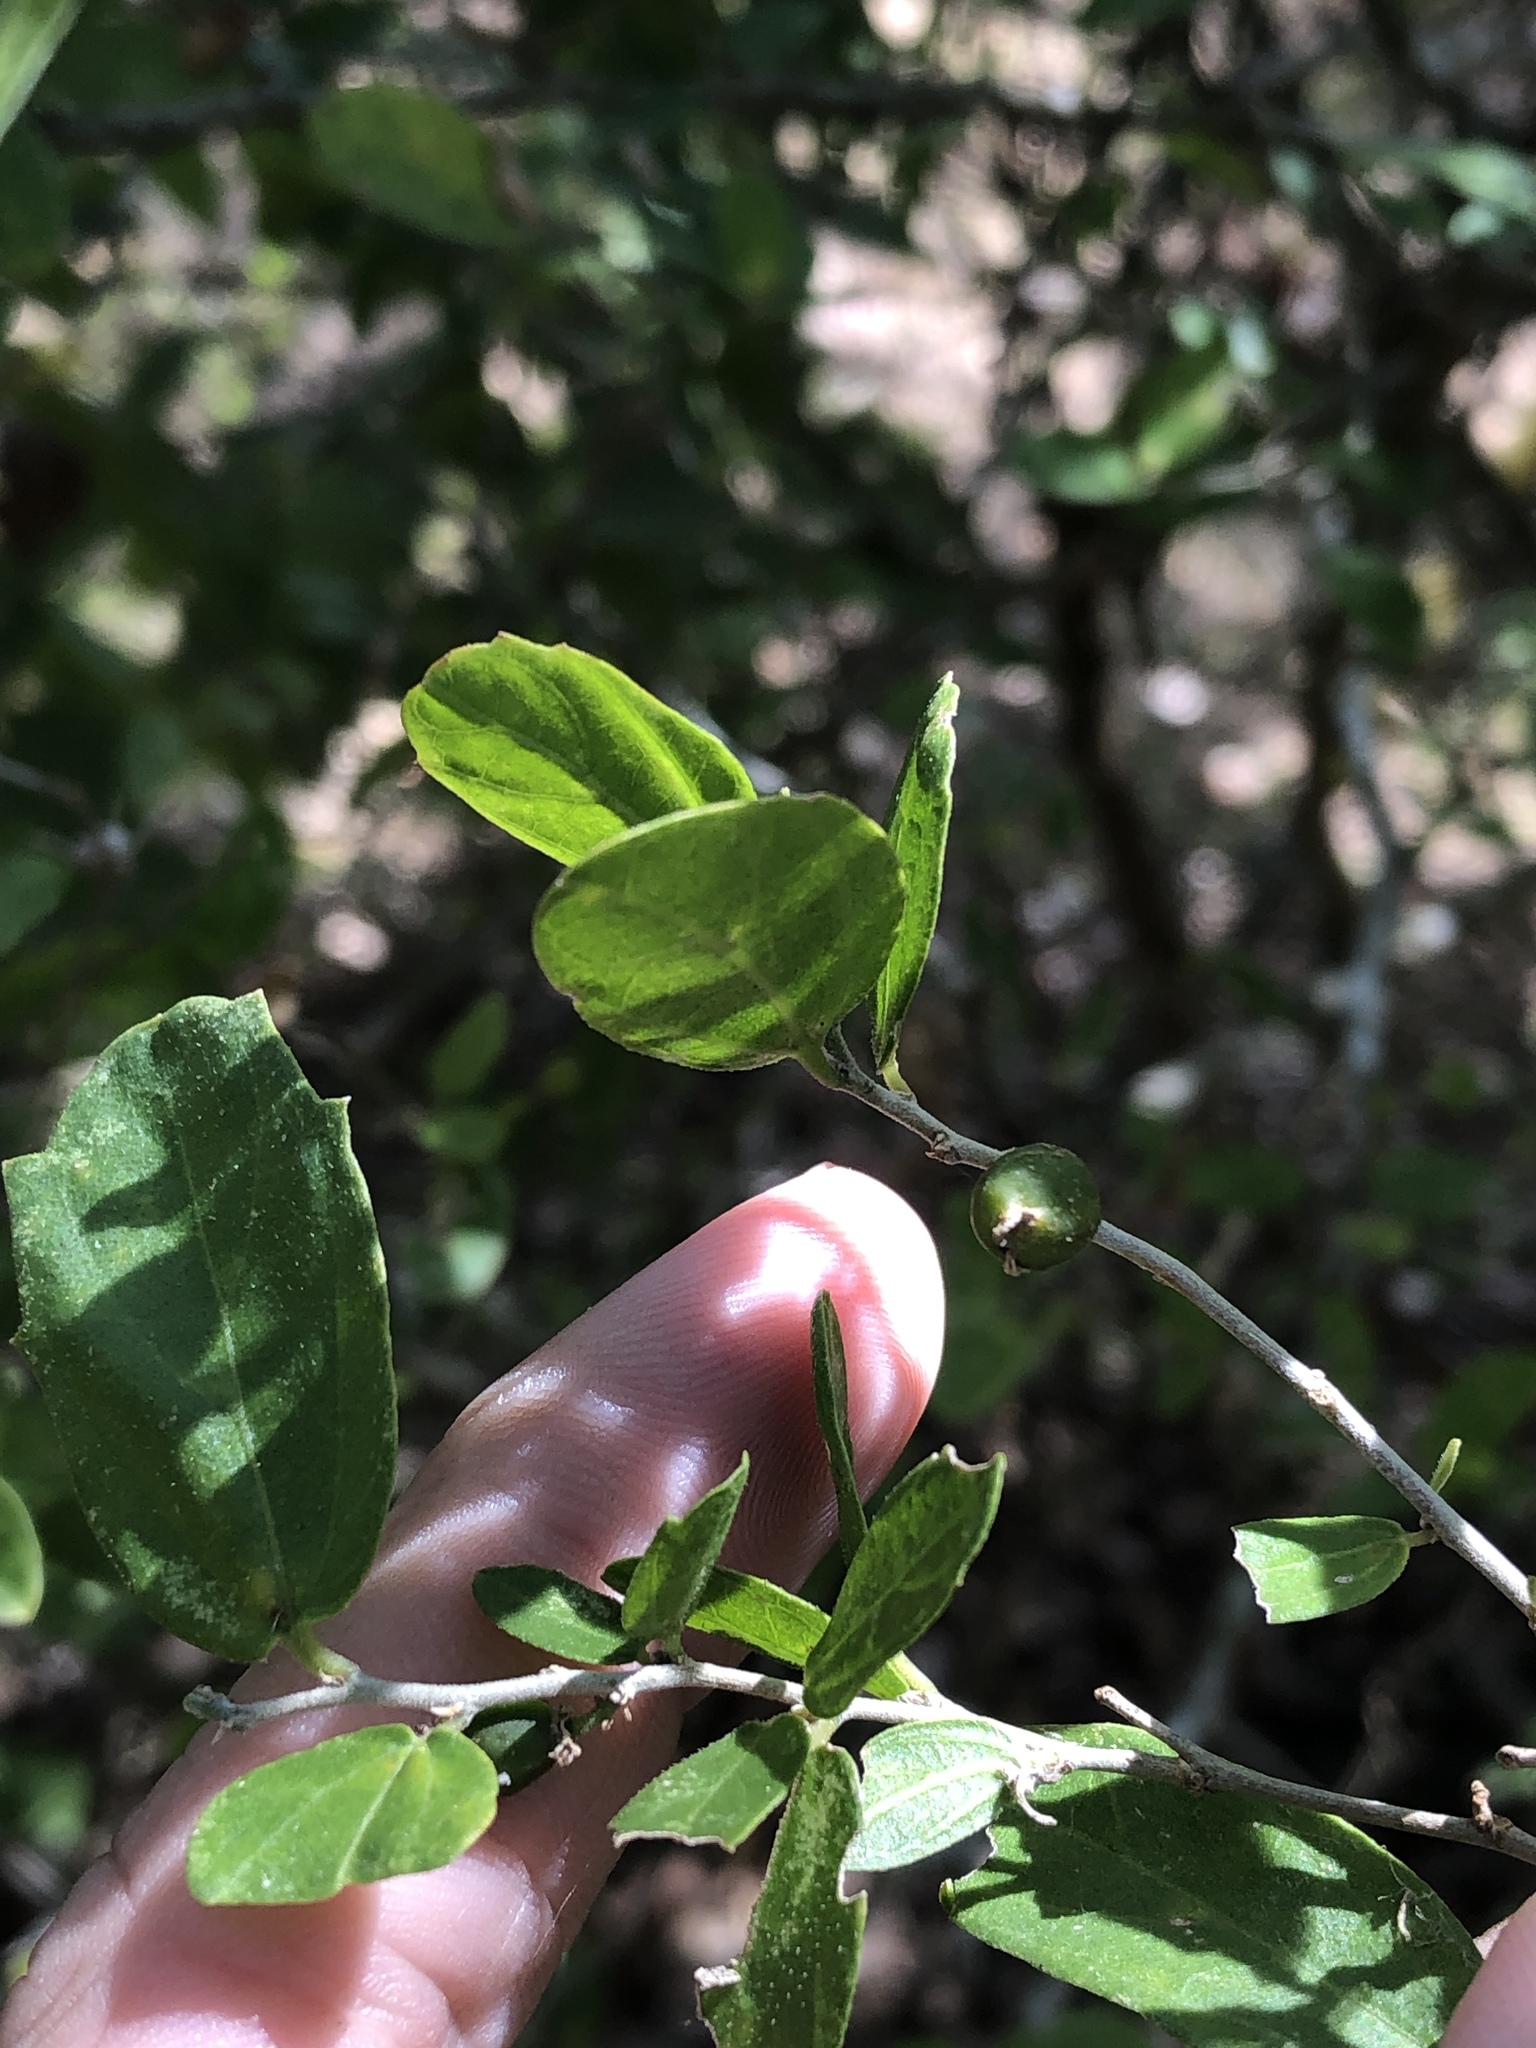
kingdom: Plantae
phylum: Tracheophyta
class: Magnoliopsida
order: Rosales
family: Cannabaceae
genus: Celtis
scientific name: Celtis pallida
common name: Desert hackberry
